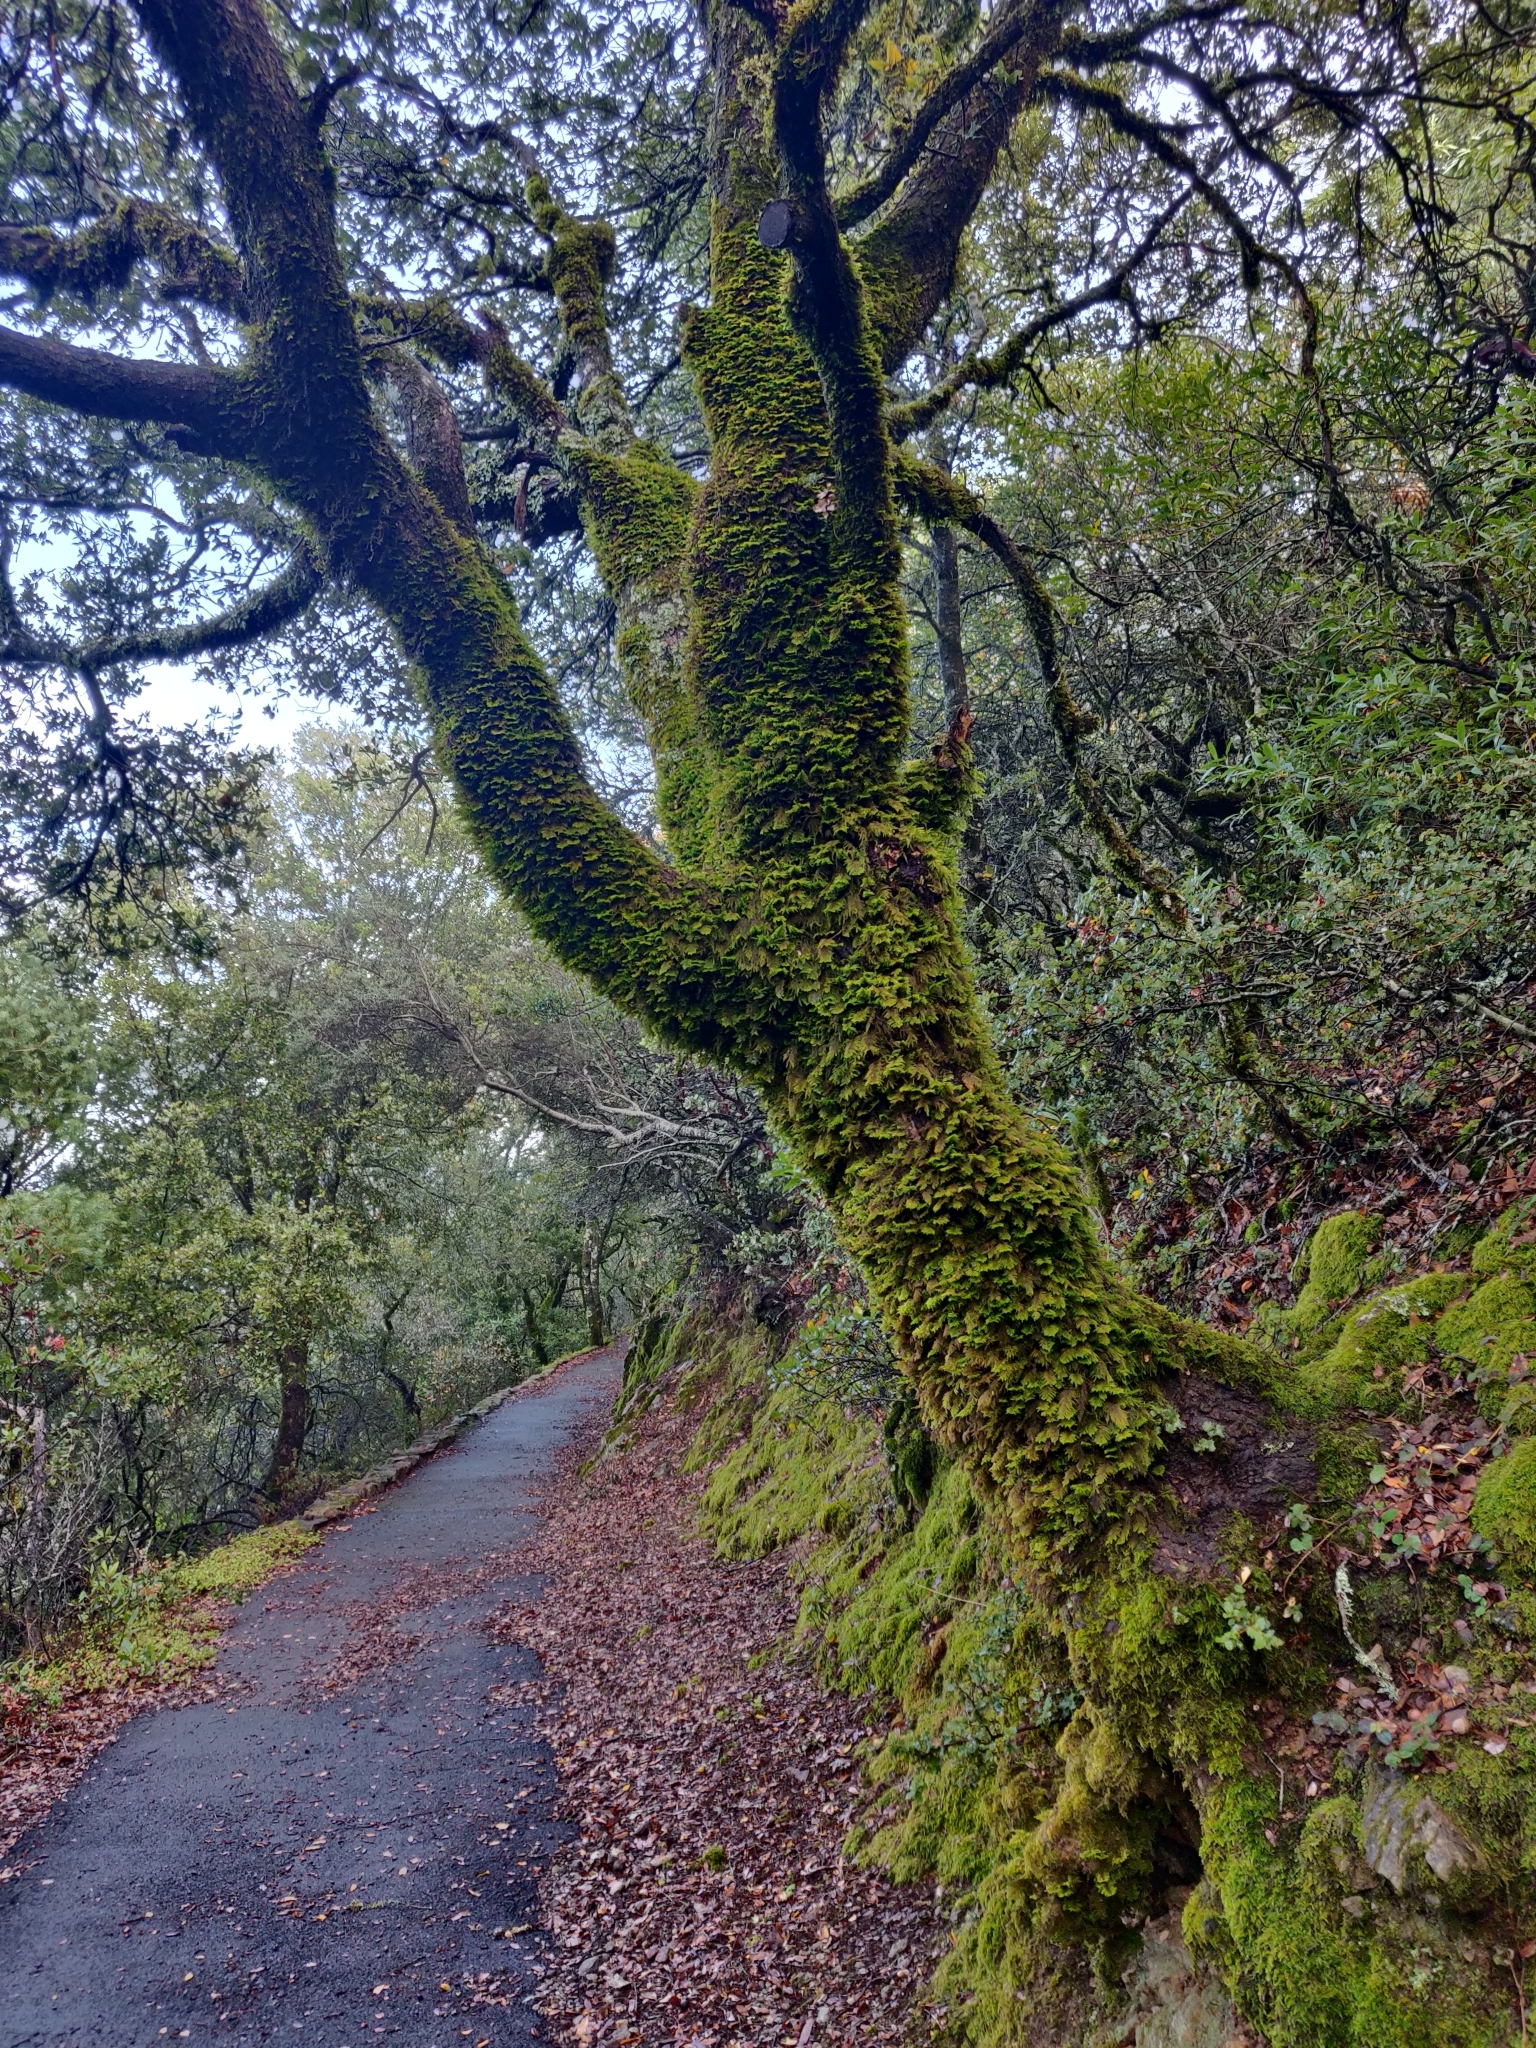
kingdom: Plantae
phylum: Bryophyta
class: Bryopsida
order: Hypnales
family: Cryphaeaceae
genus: Dendroalsia
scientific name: Dendroalsia abietina
